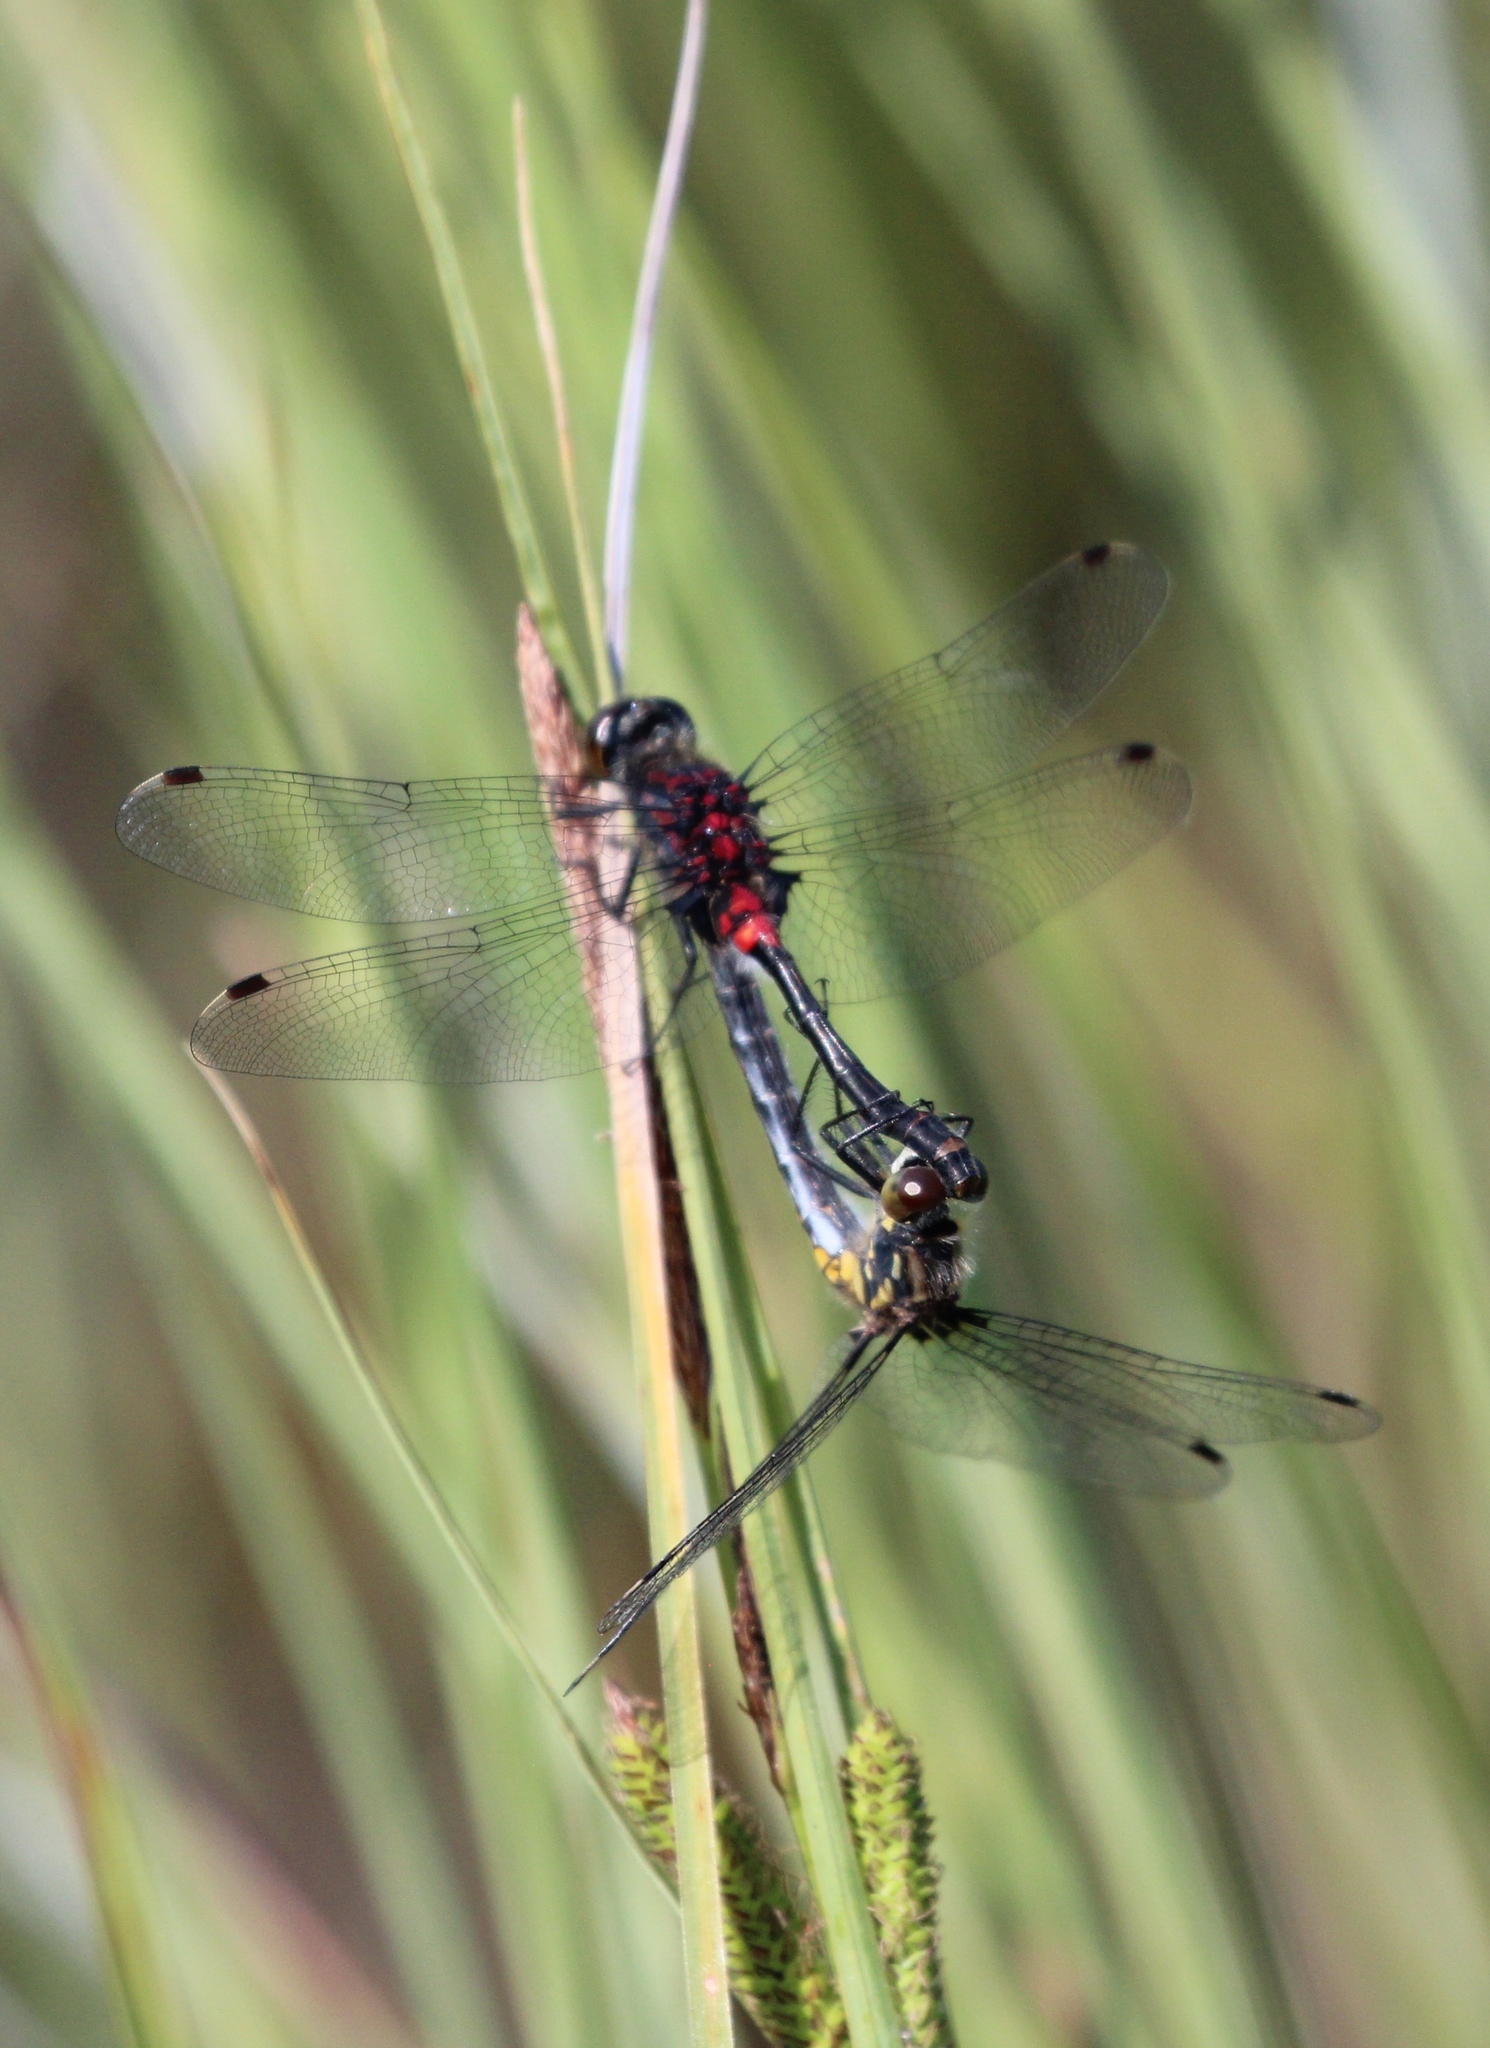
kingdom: Animalia
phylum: Arthropoda
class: Insecta
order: Odonata
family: Libellulidae
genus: Leucorrhinia
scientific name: Leucorrhinia glacialis
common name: Crimson-ringed whiteface
